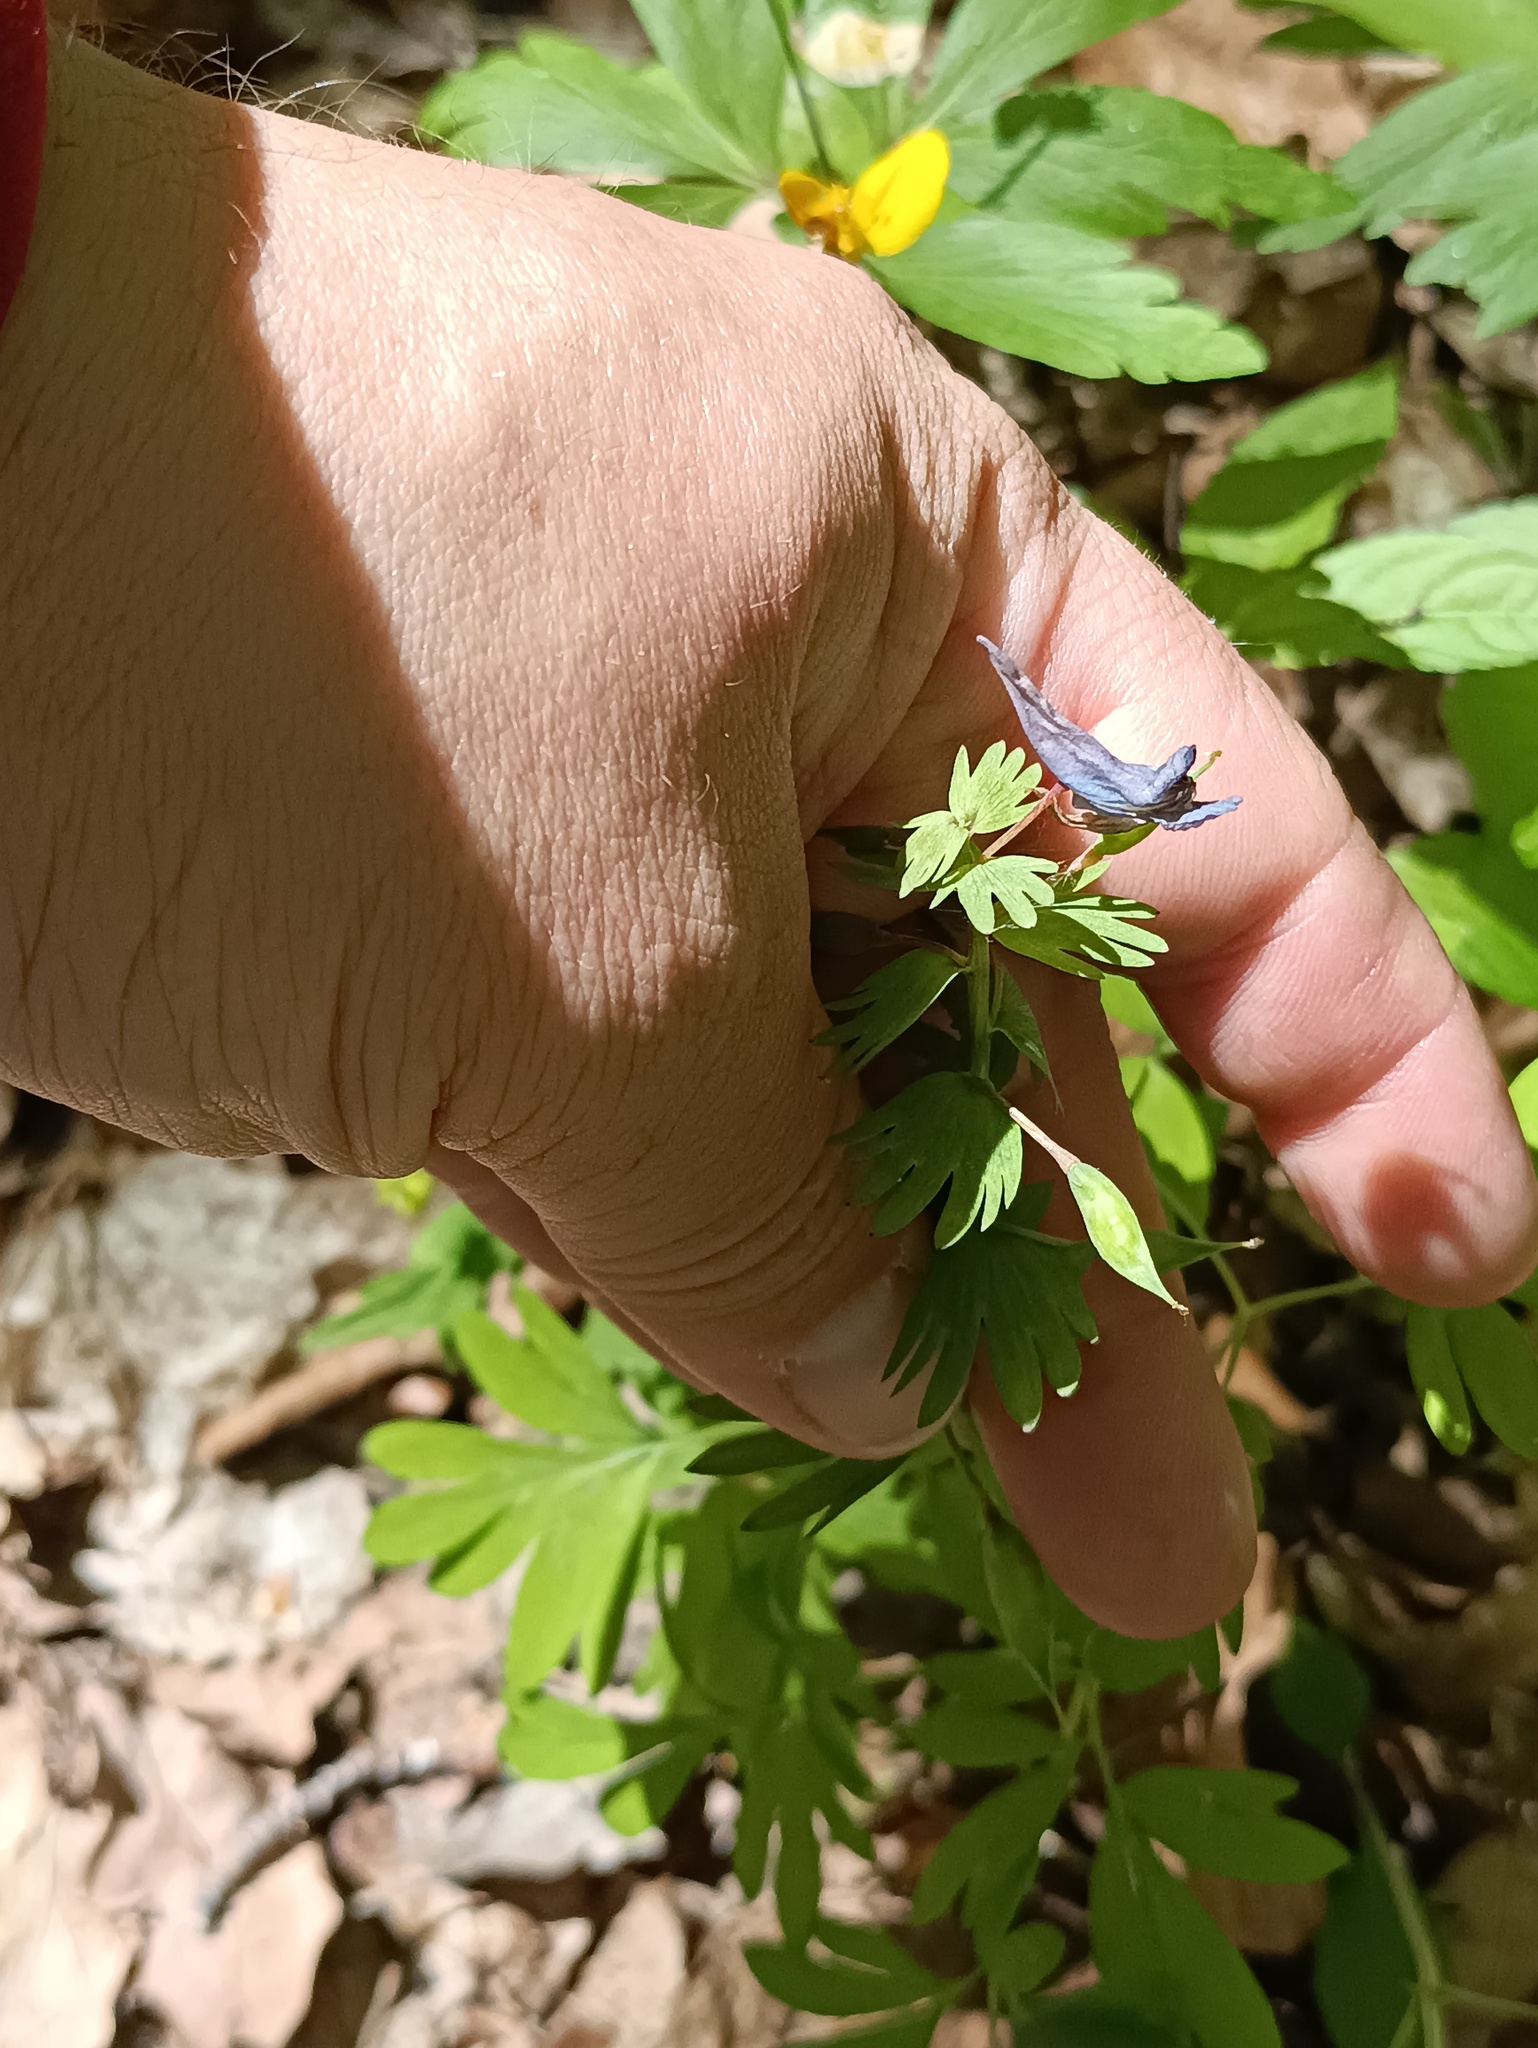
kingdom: Plantae
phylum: Tracheophyta
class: Magnoliopsida
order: Ranunculales
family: Papaveraceae
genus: Corydalis
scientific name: Corydalis solida
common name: Bird-in-a-bush
